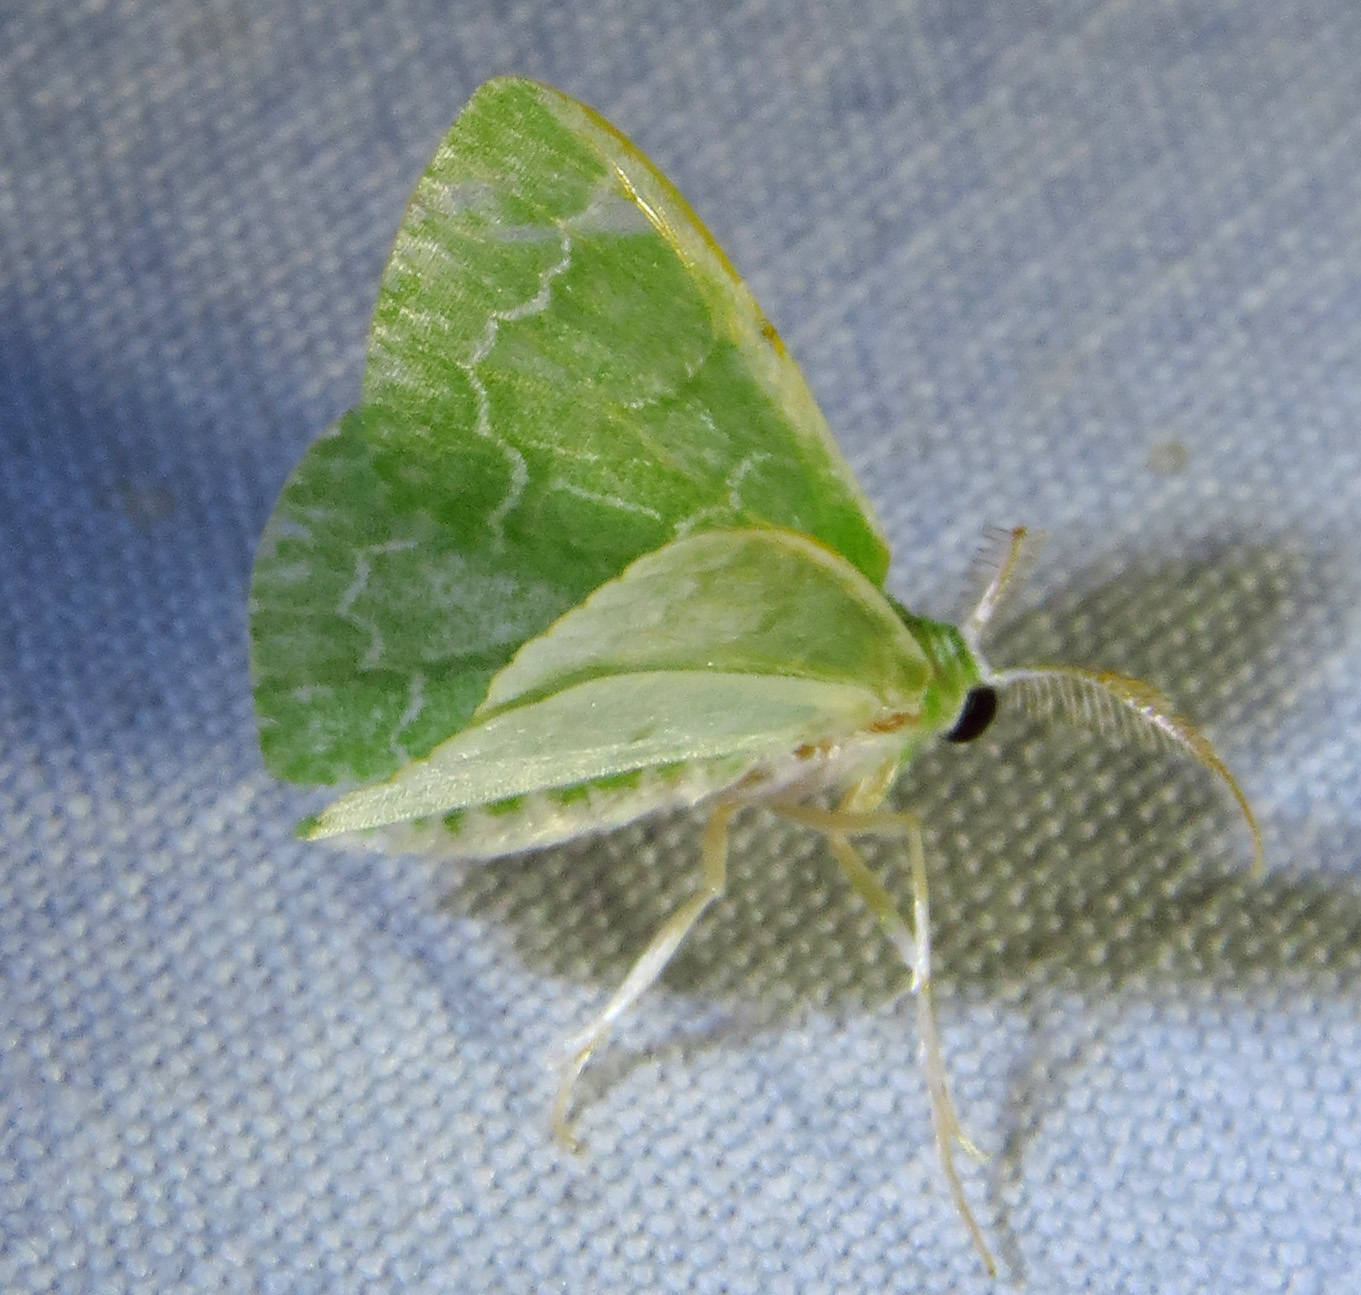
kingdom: Animalia
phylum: Arthropoda
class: Insecta
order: Lepidoptera
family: Geometridae
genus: Synchlora
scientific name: Synchlora frondaria
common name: Southern emerald
